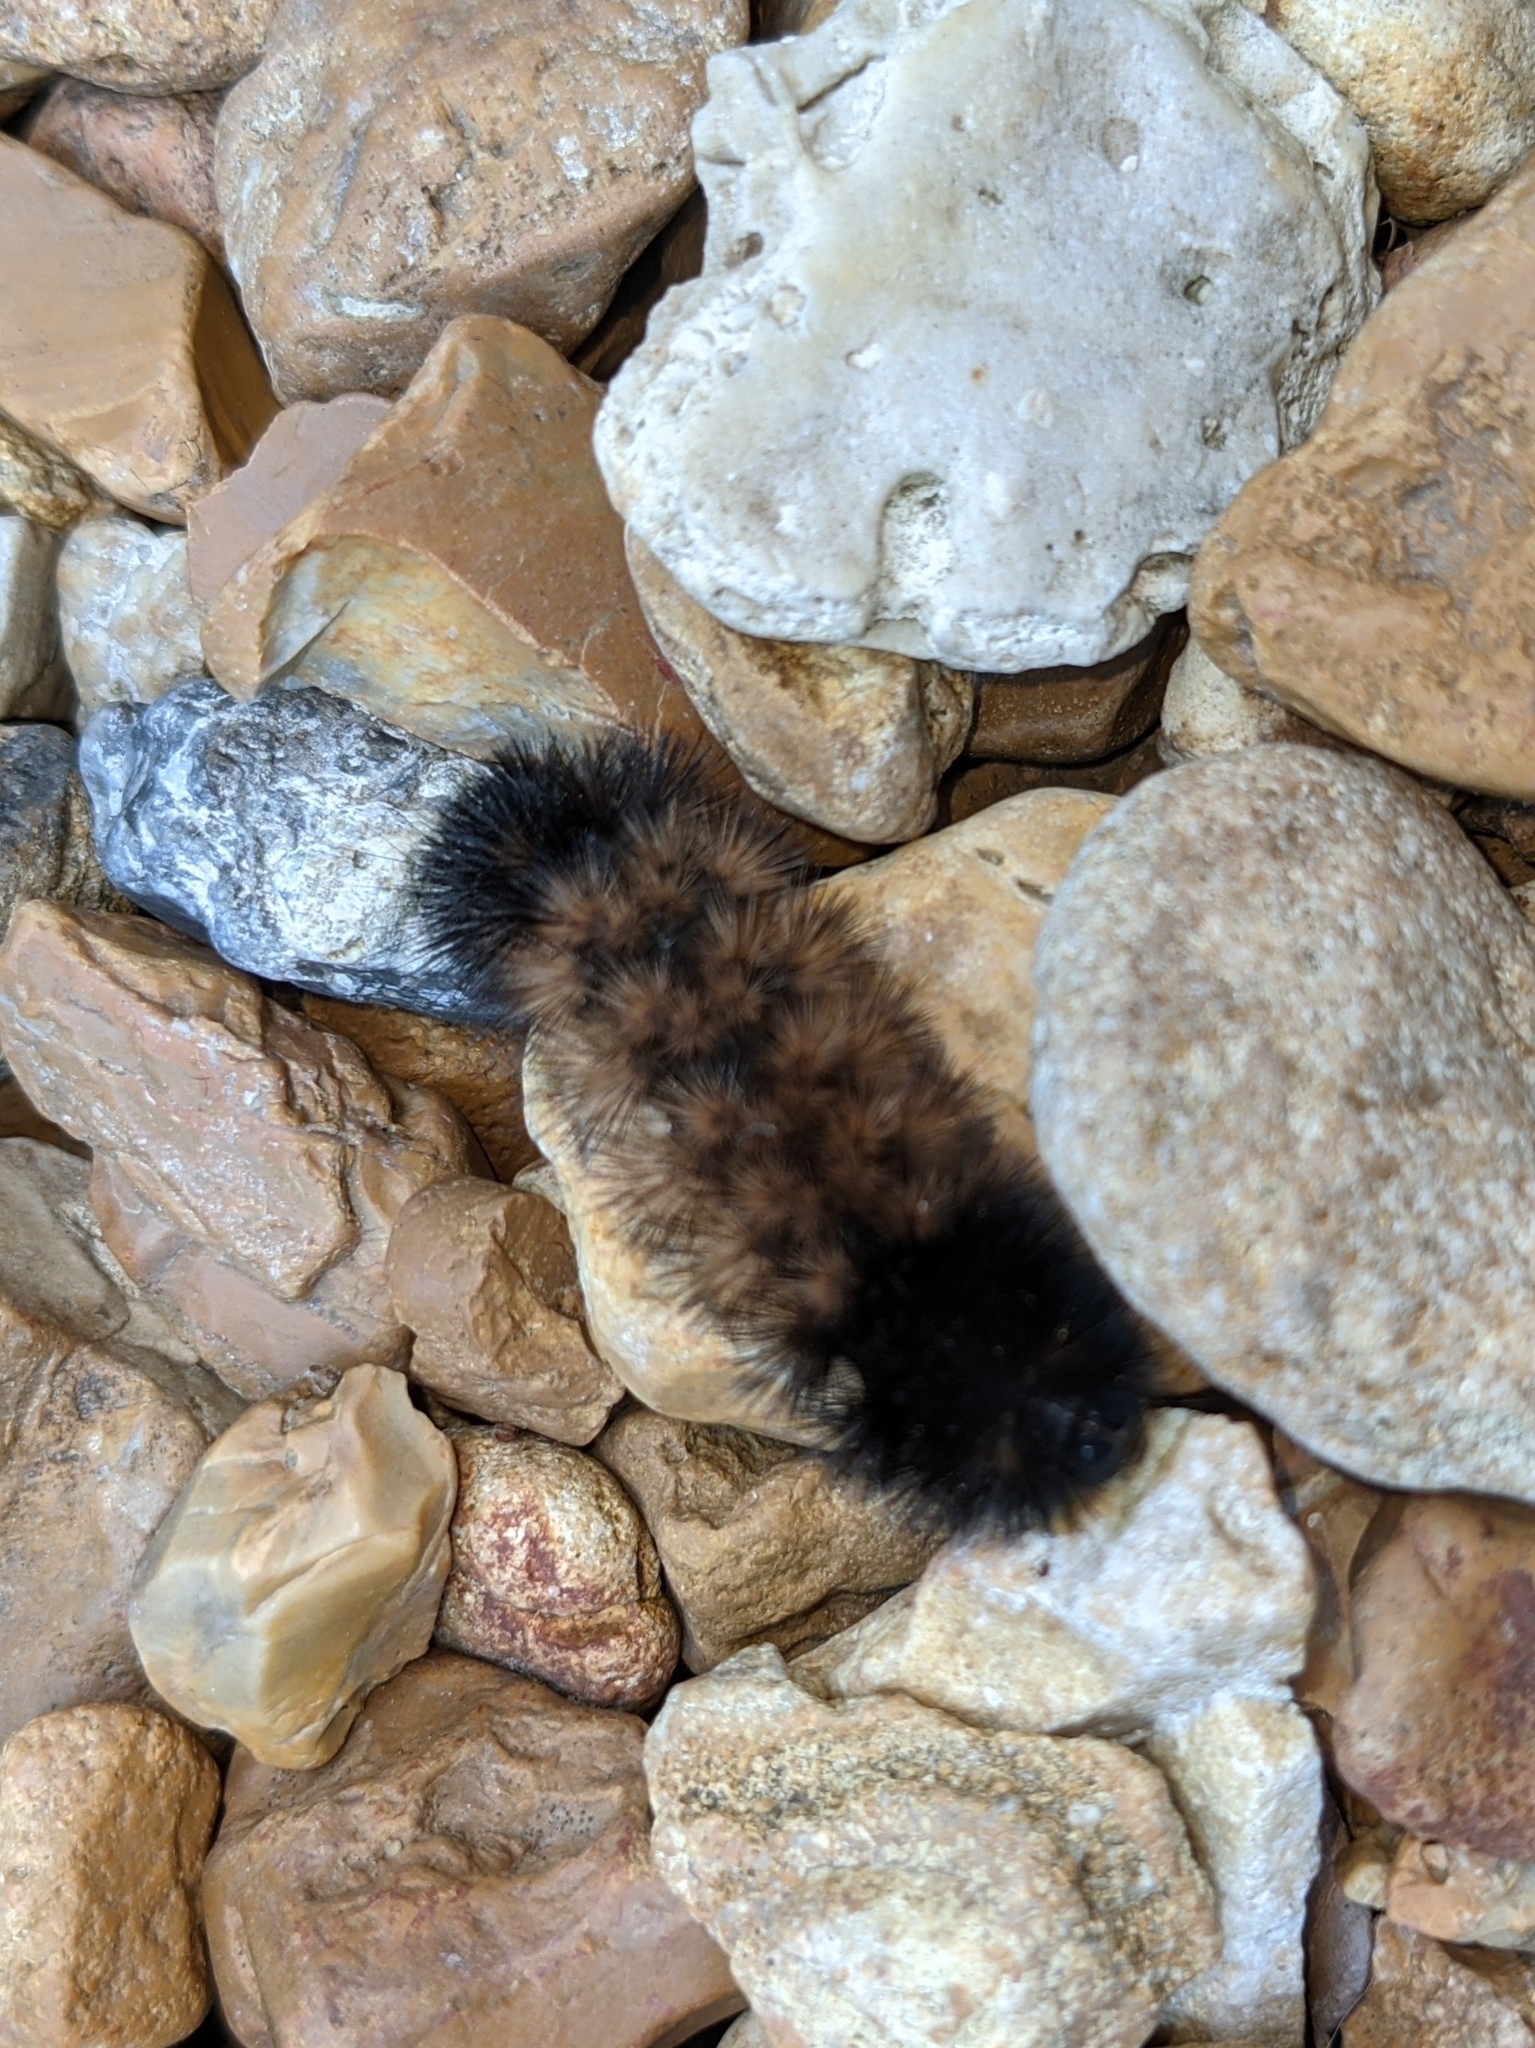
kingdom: Animalia
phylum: Arthropoda
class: Insecta
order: Lepidoptera
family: Erebidae
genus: Pyrrharctia
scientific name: Pyrrharctia isabella
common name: Isabella tiger moth
